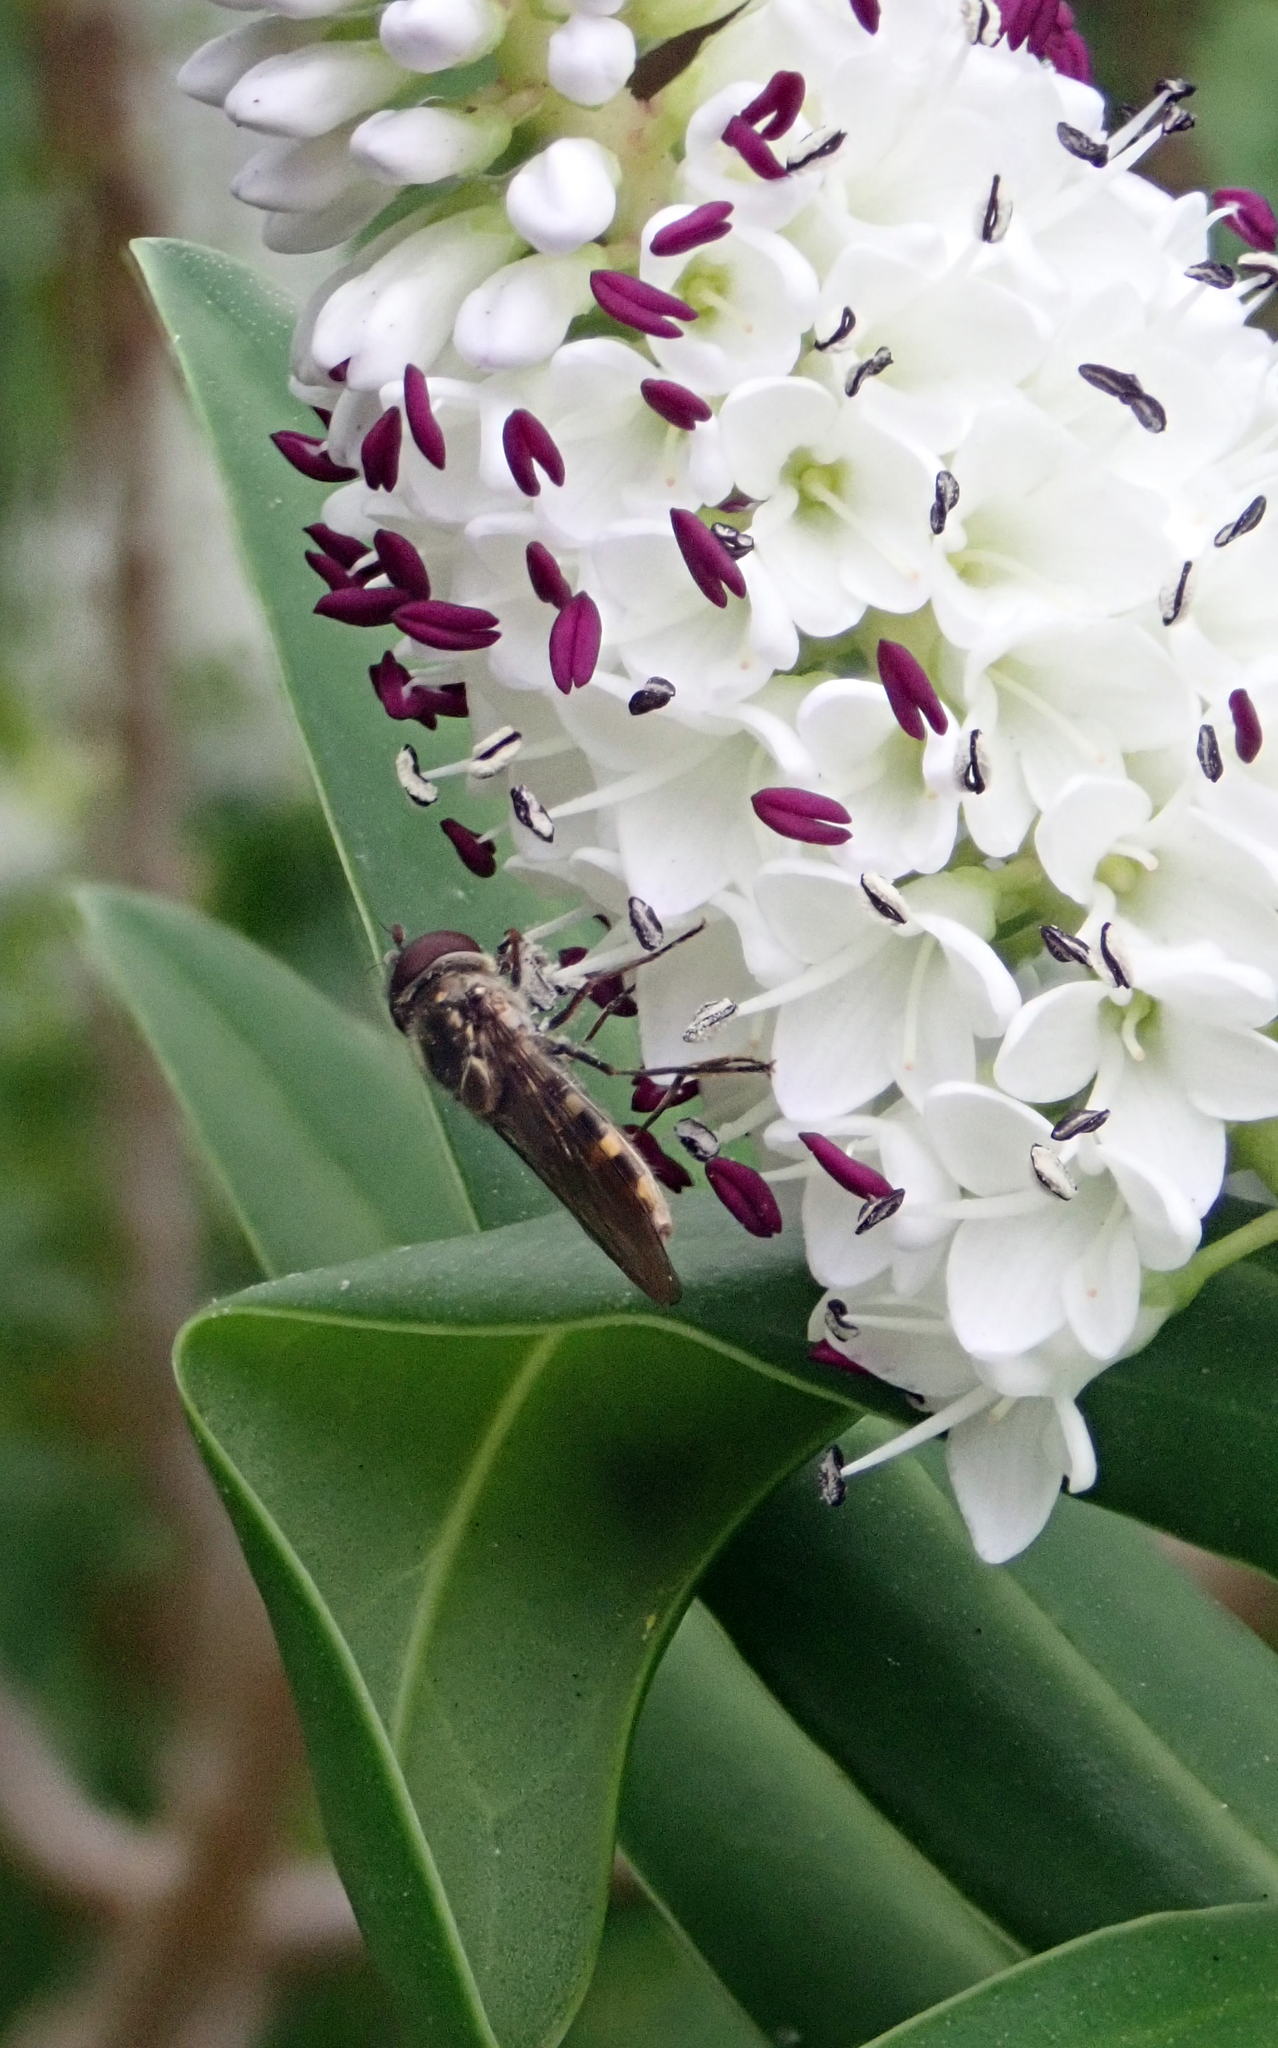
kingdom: Plantae
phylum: Tracheophyta
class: Magnoliopsida
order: Lamiales
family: Plantaginaceae
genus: Veronica
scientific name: Veronica dieffenbachii
